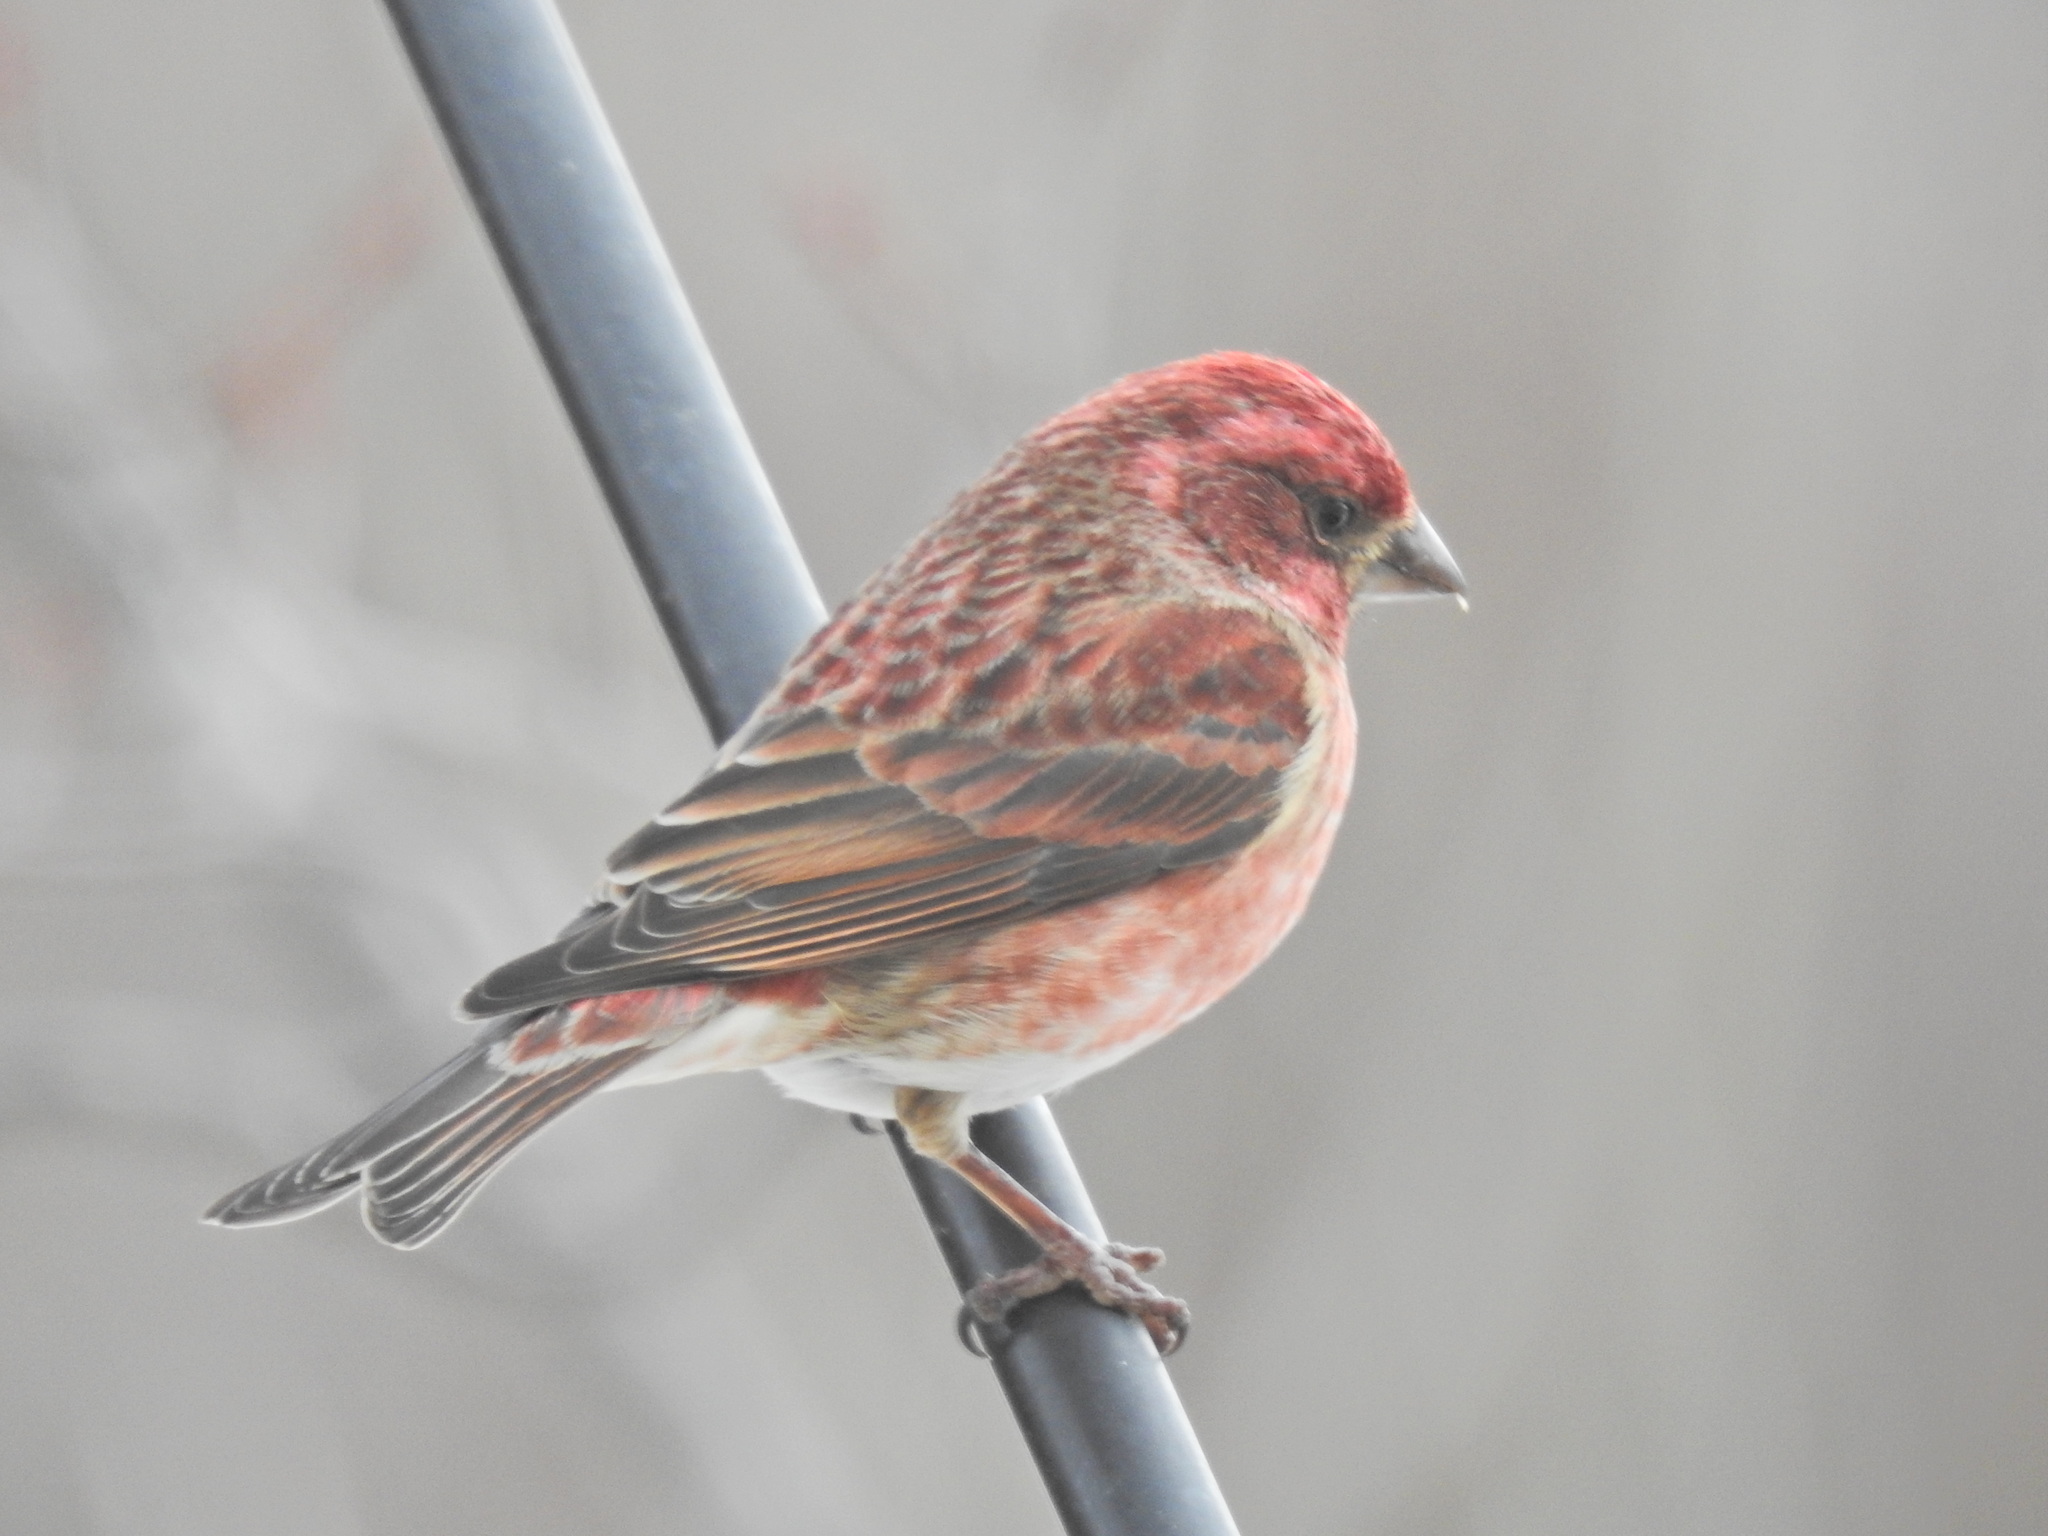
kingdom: Animalia
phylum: Chordata
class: Aves
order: Passeriformes
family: Fringillidae
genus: Haemorhous
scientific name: Haemorhous purpureus
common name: Purple finch
